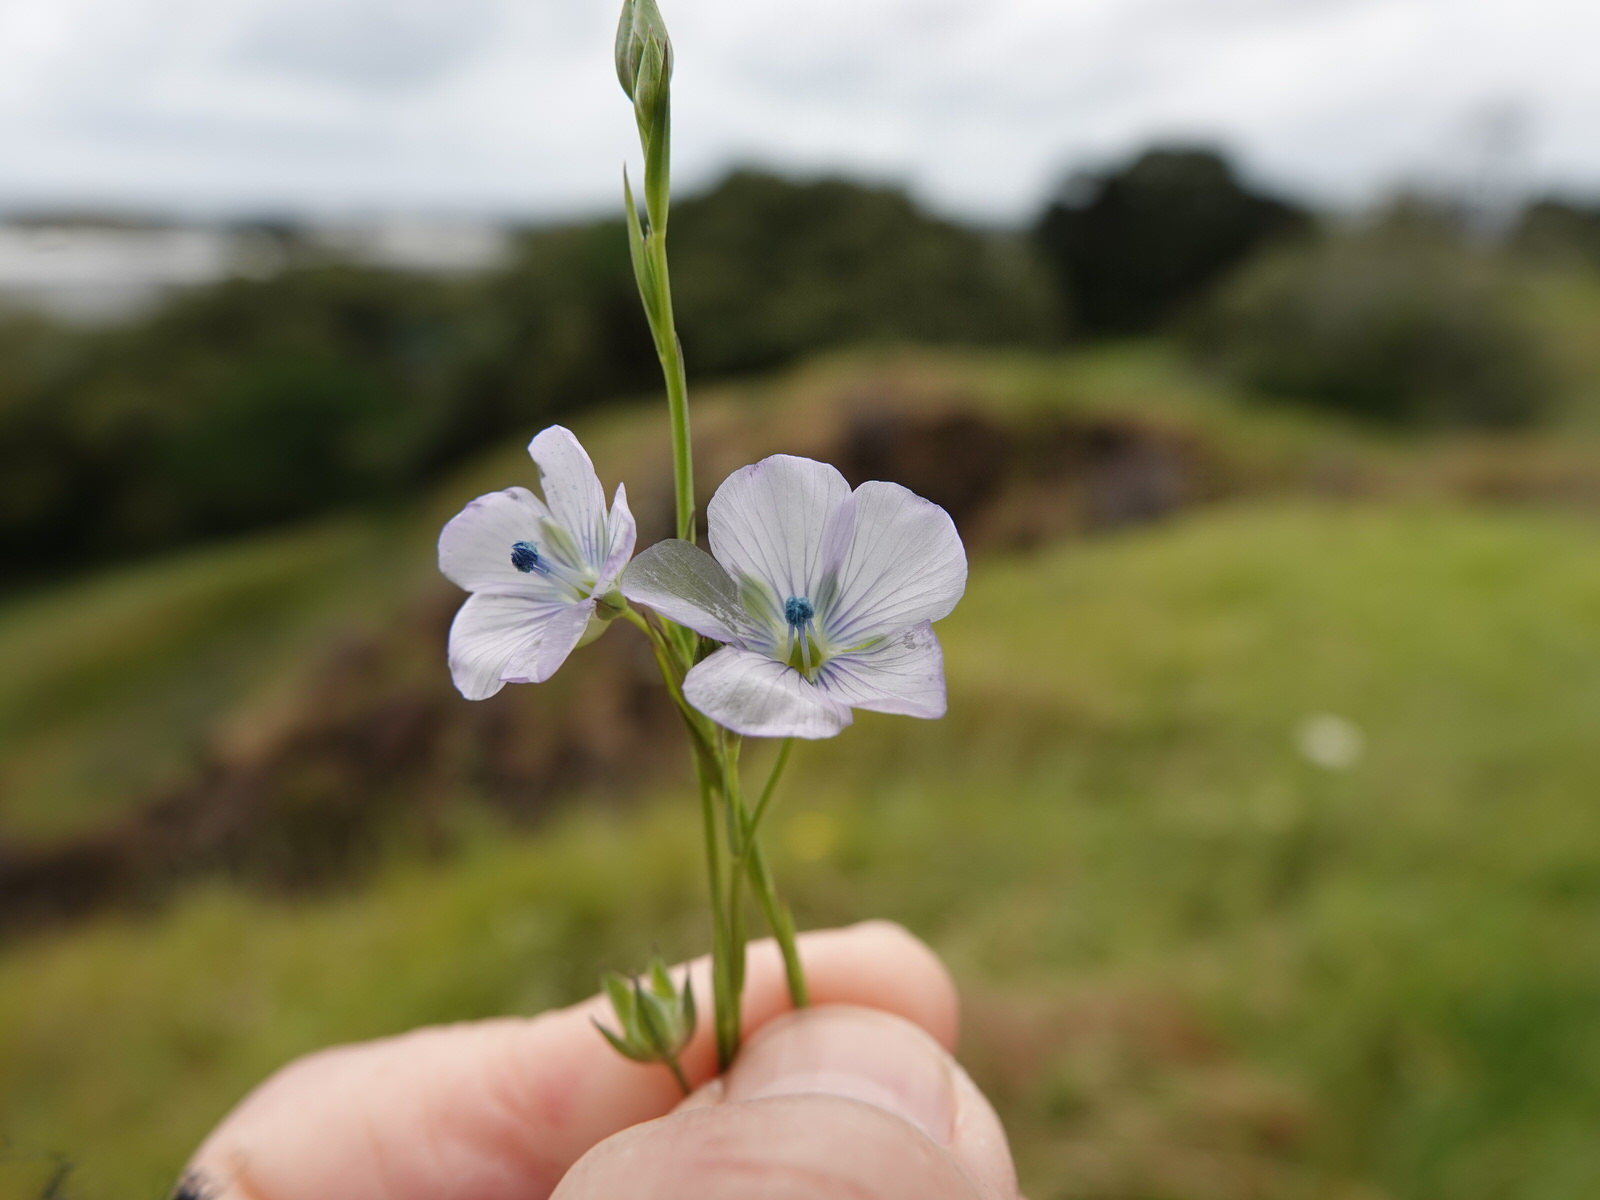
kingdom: Plantae
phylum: Tracheophyta
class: Magnoliopsida
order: Malpighiales
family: Linaceae
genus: Linum
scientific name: Linum usitatissimum
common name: Flax
